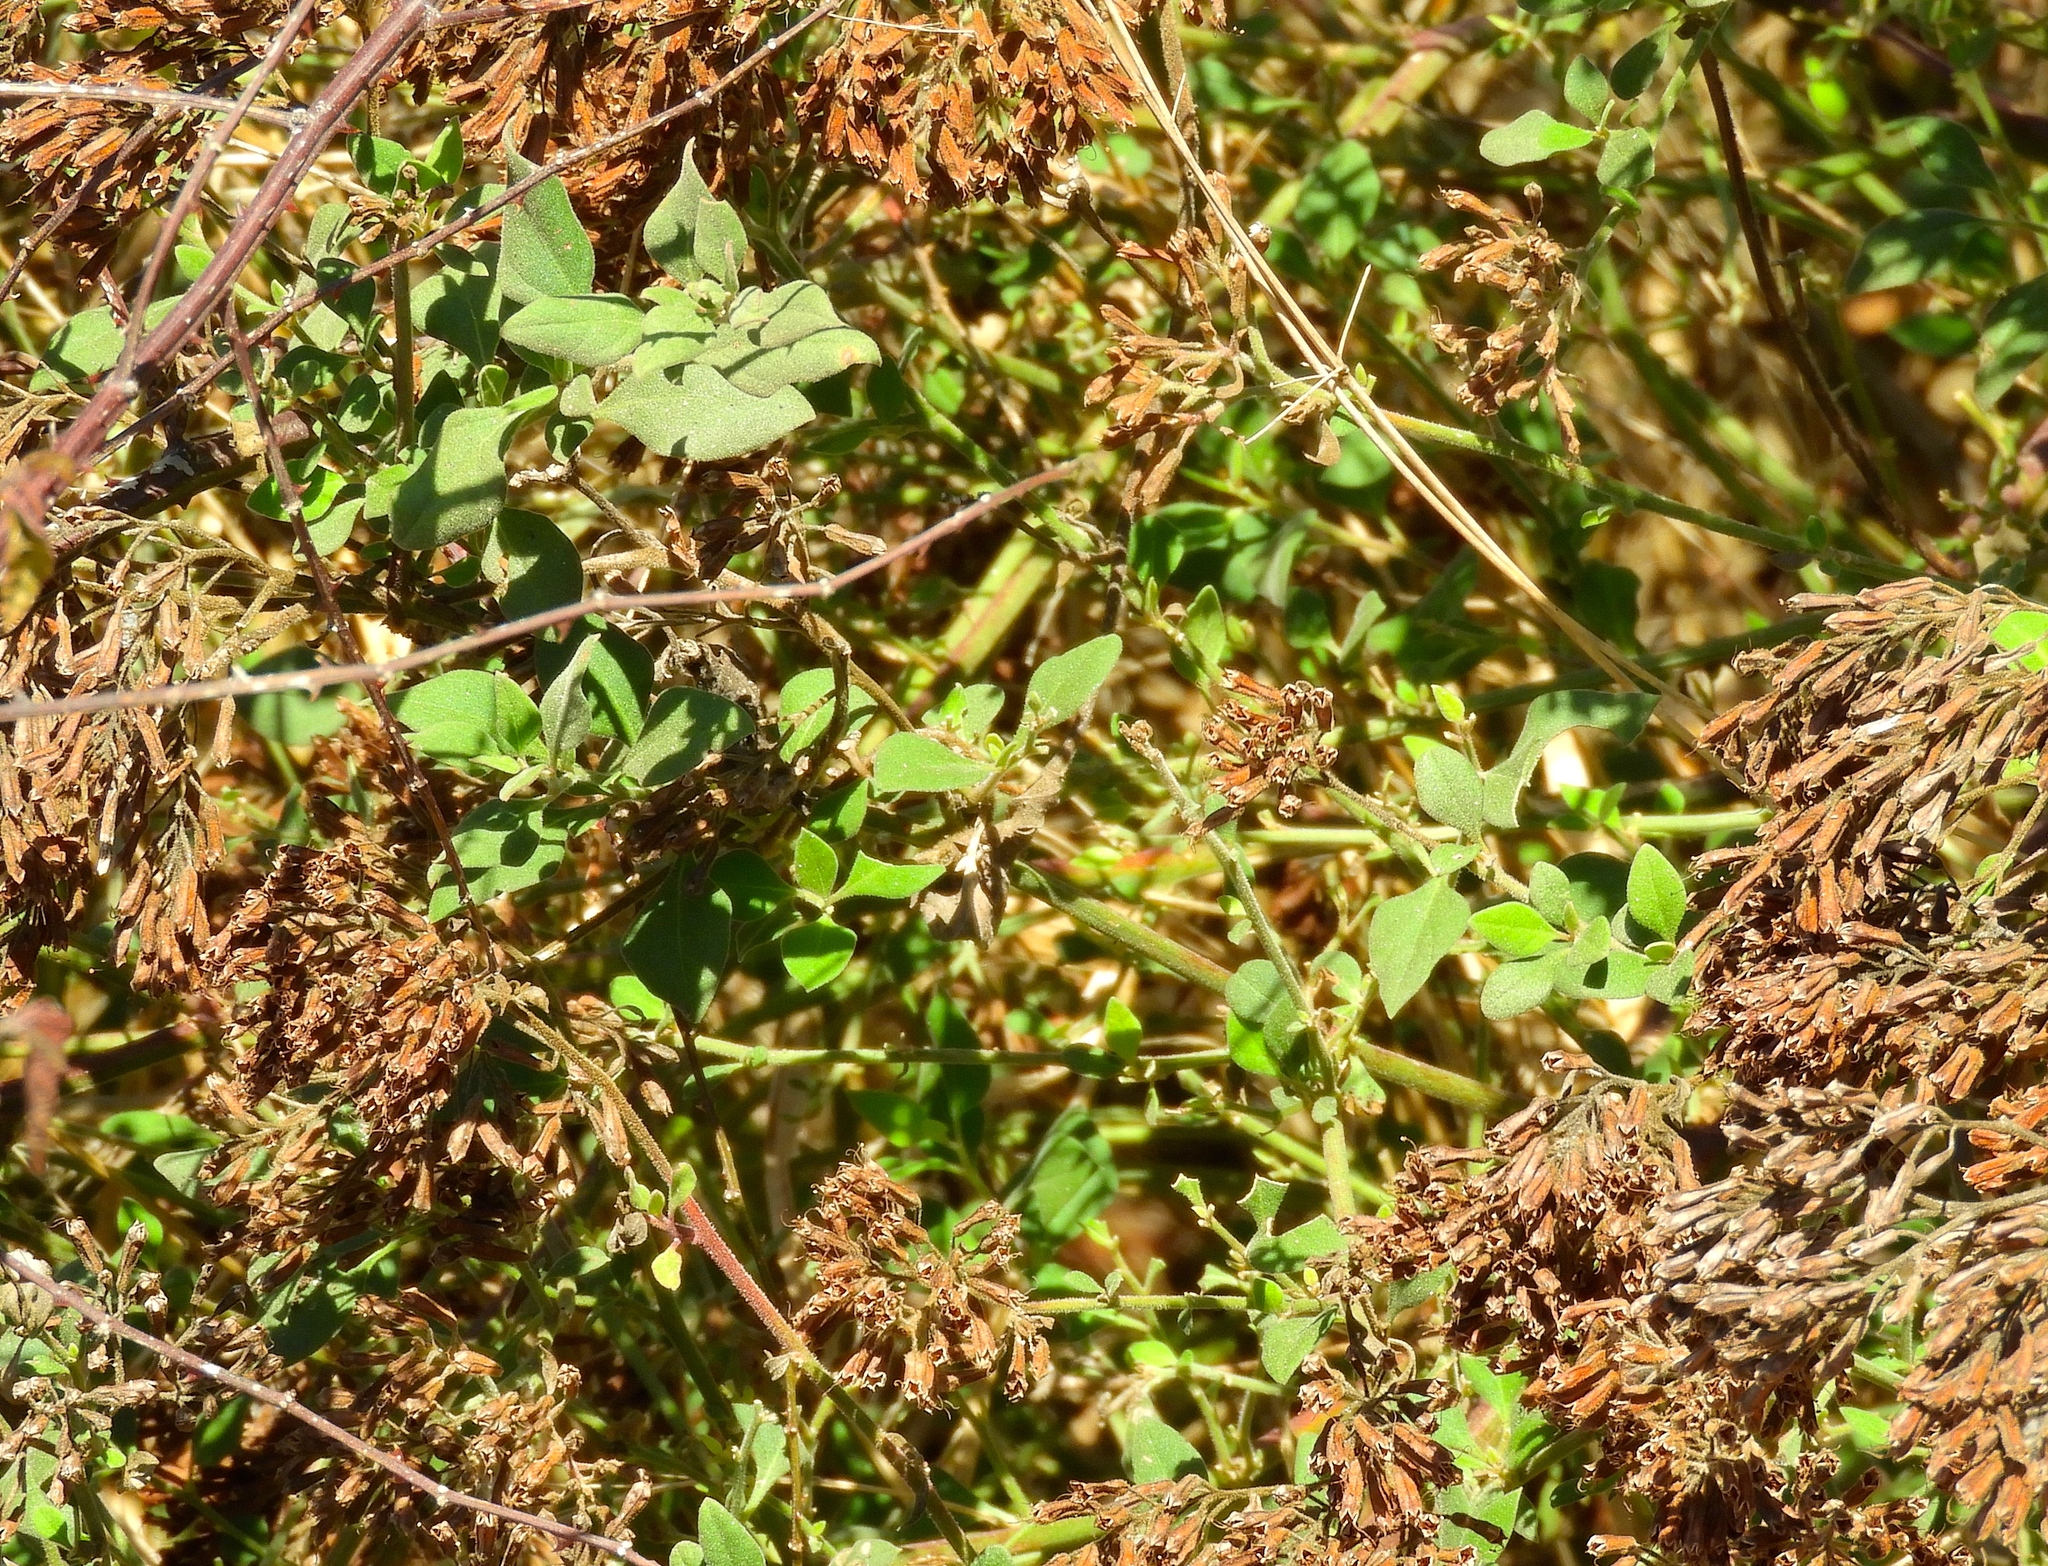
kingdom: Plantae
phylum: Tracheophyta
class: Magnoliopsida
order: Caryophyllales
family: Nyctaginaceae
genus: Salpianthus
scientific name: Salpianthus arenarius
